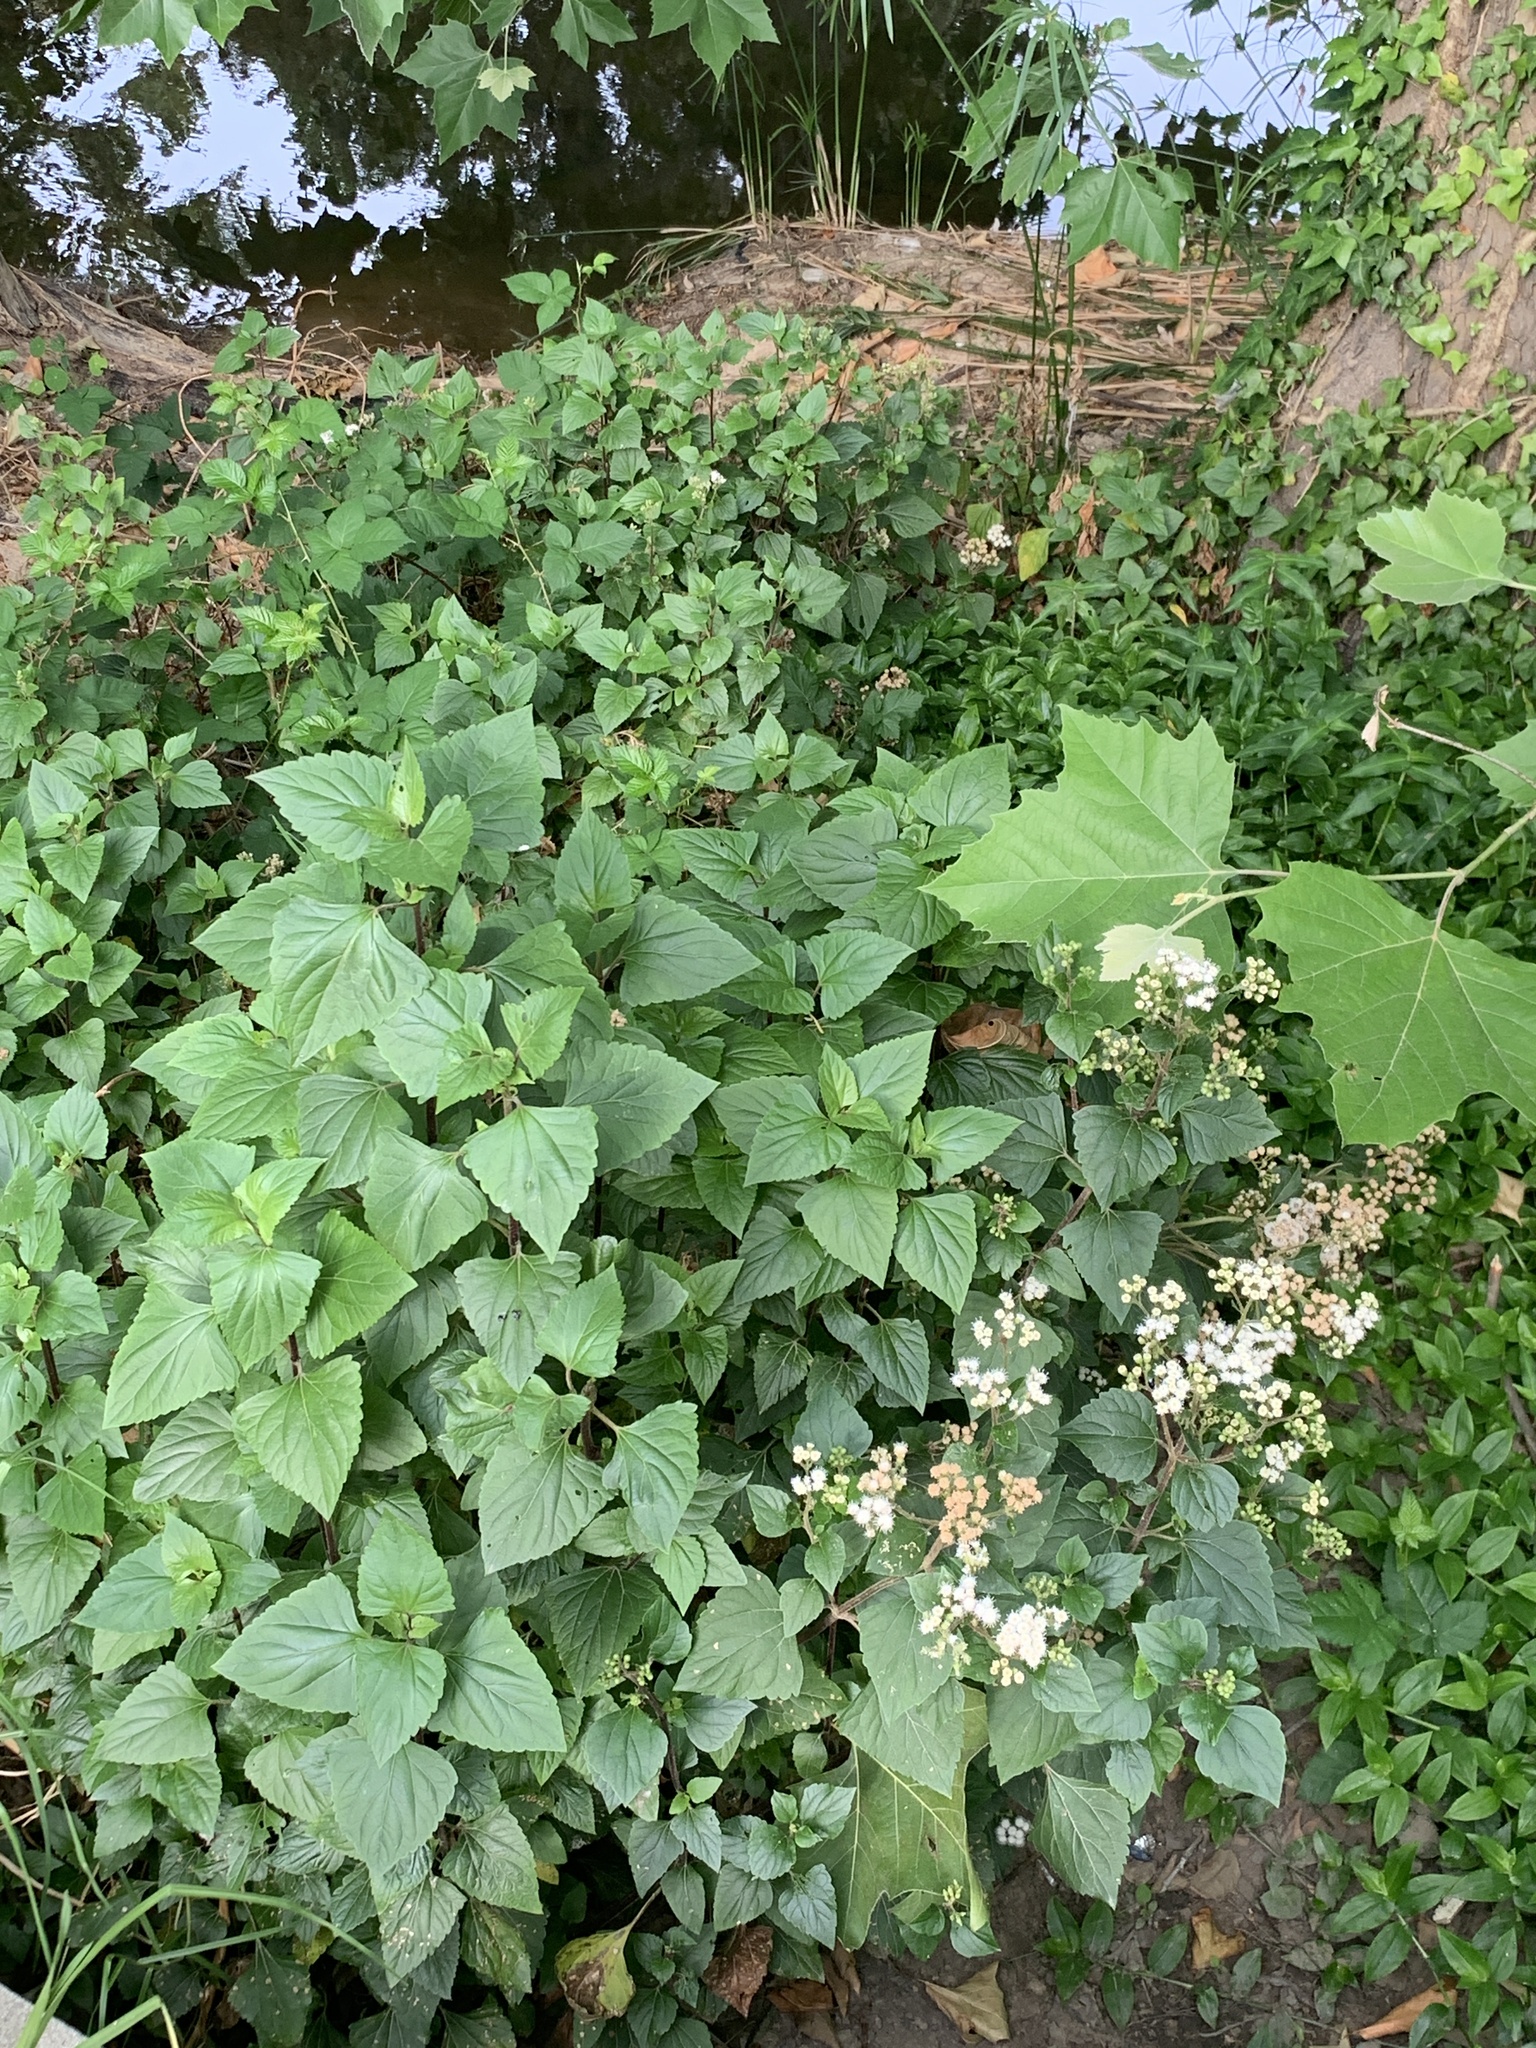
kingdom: Plantae
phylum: Tracheophyta
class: Magnoliopsida
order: Asterales
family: Asteraceae
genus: Ageratina
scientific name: Ageratina adenophora
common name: Sticky snakeroot
